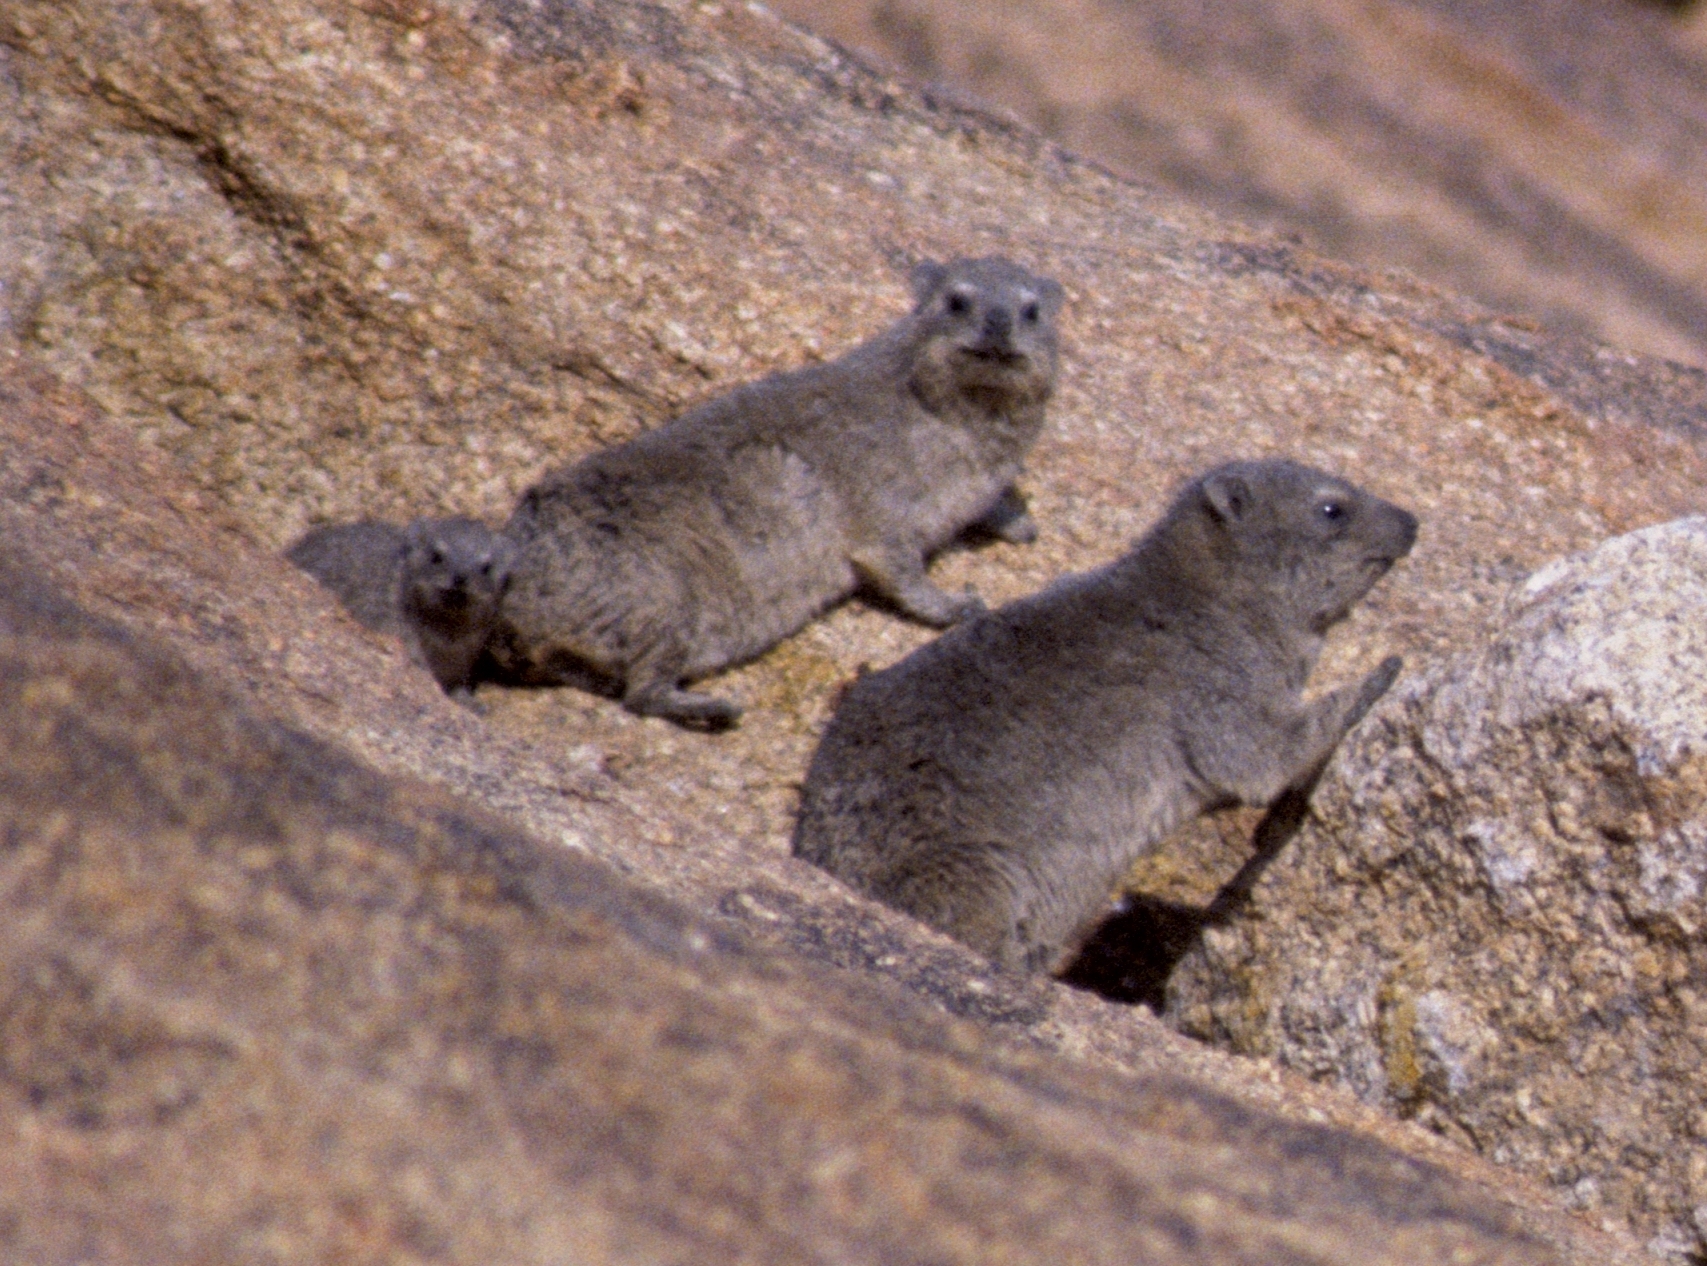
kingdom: Animalia
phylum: Chordata
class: Mammalia
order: Hyracoidea
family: Procaviidae
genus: Procavia
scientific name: Procavia capensis
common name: Rock hyrax
